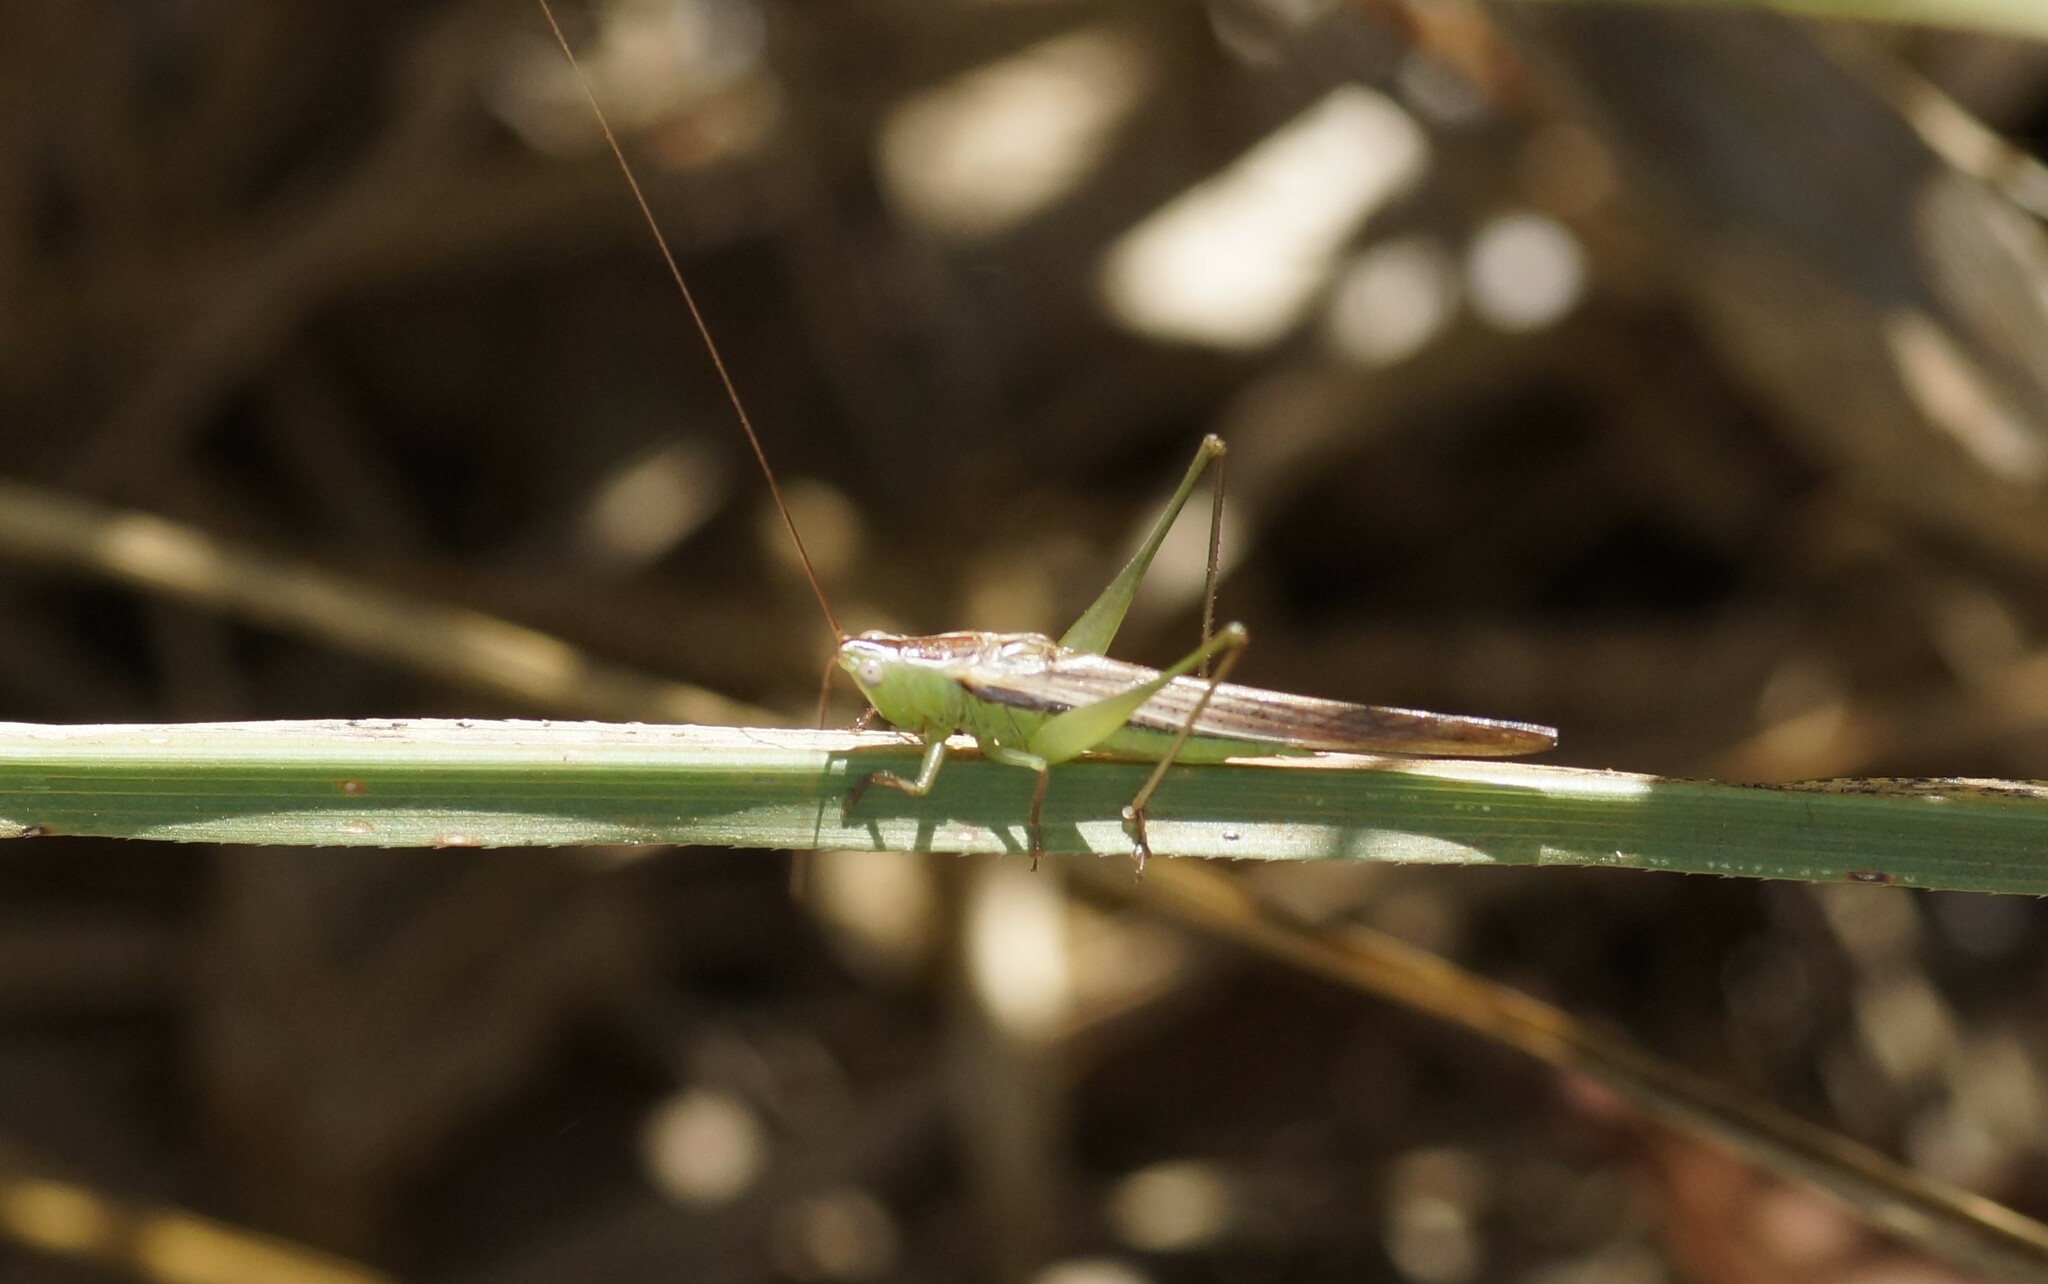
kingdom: Animalia
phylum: Arthropoda
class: Insecta
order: Orthoptera
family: Tettigoniidae
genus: Conocephalus
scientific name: Conocephalus upoluensis
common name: Upolu meadow katydid
